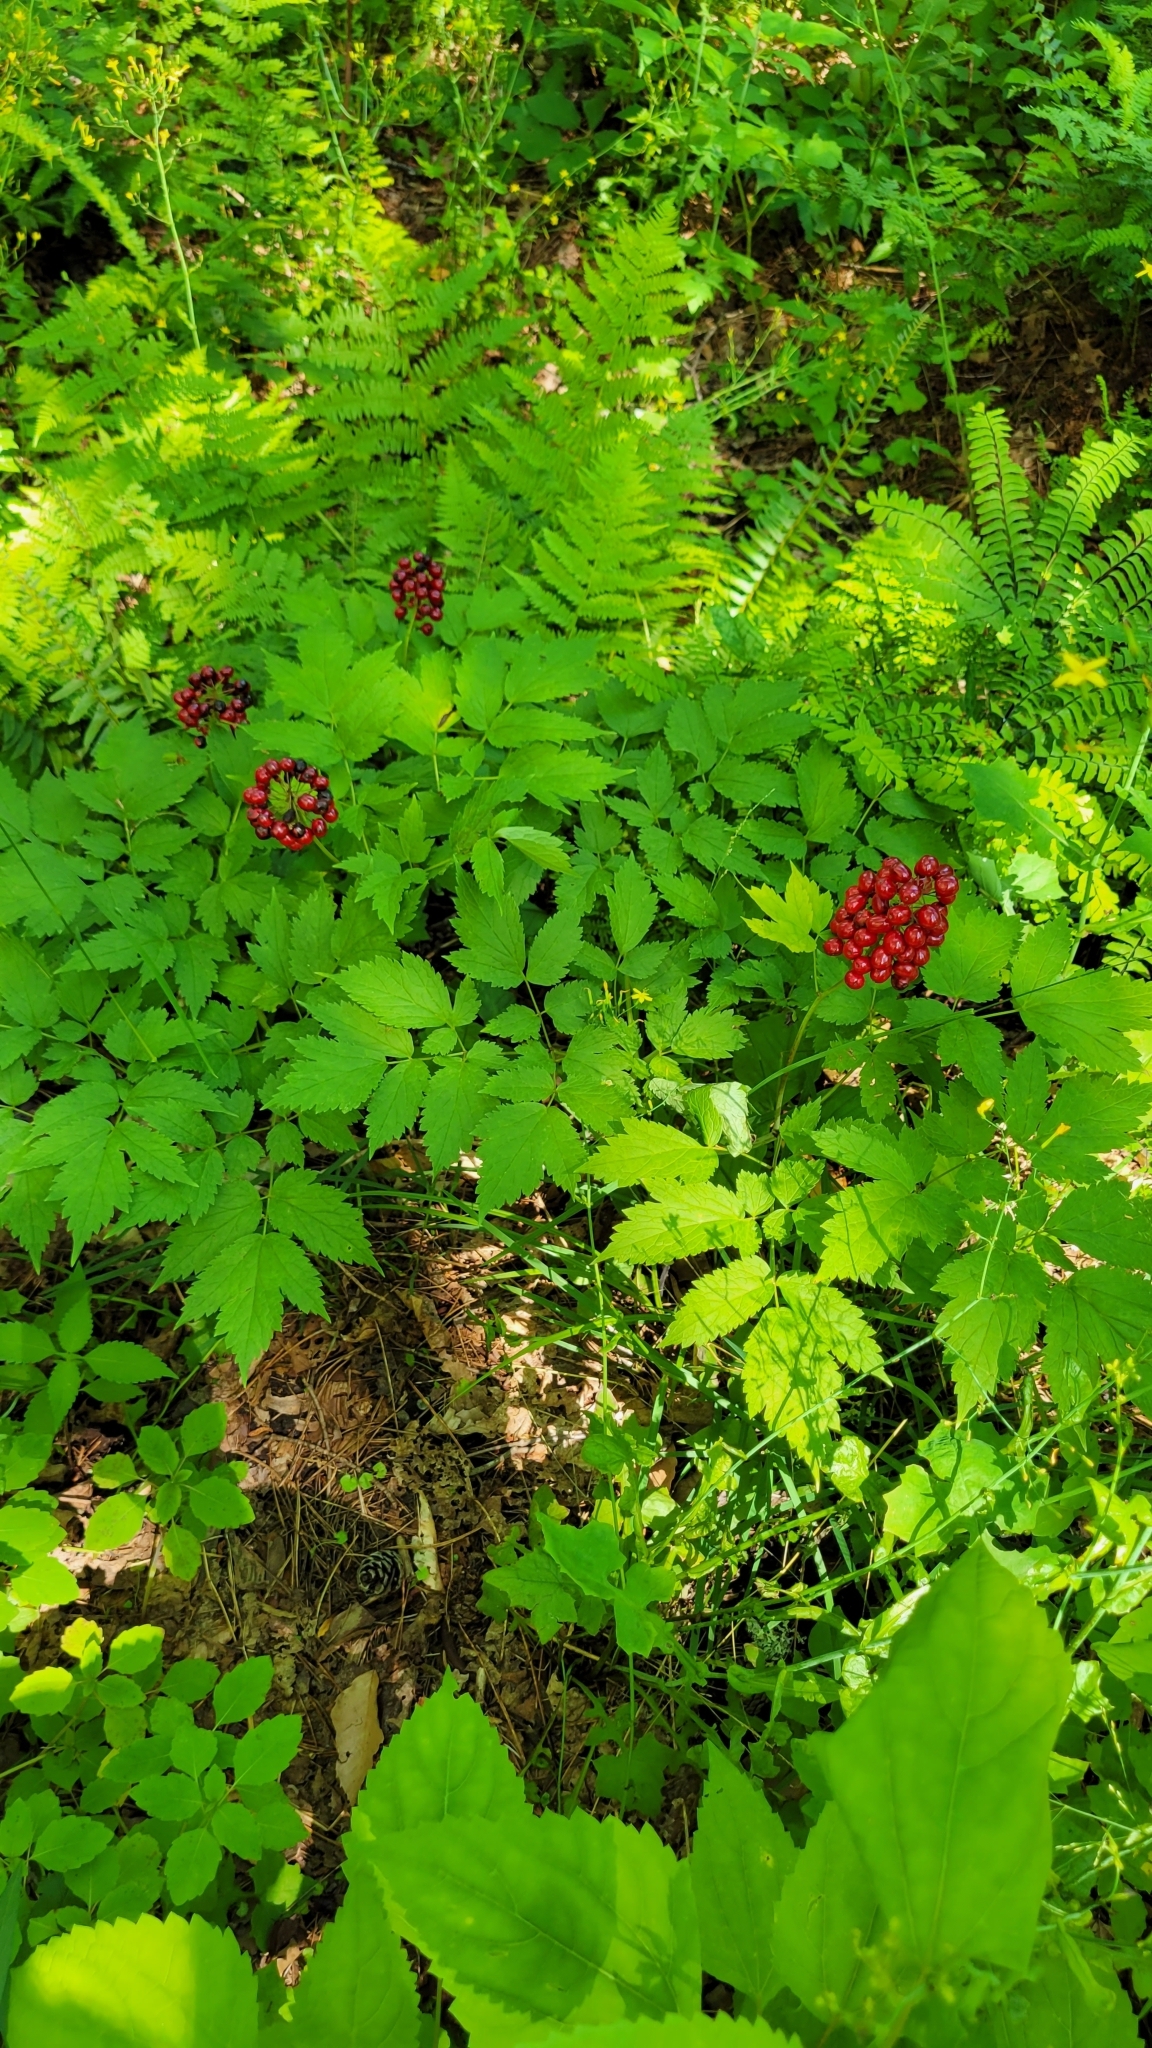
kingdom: Plantae
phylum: Tracheophyta
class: Magnoliopsida
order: Ranunculales
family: Ranunculaceae
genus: Actaea
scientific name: Actaea rubra
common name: Red baneberry
